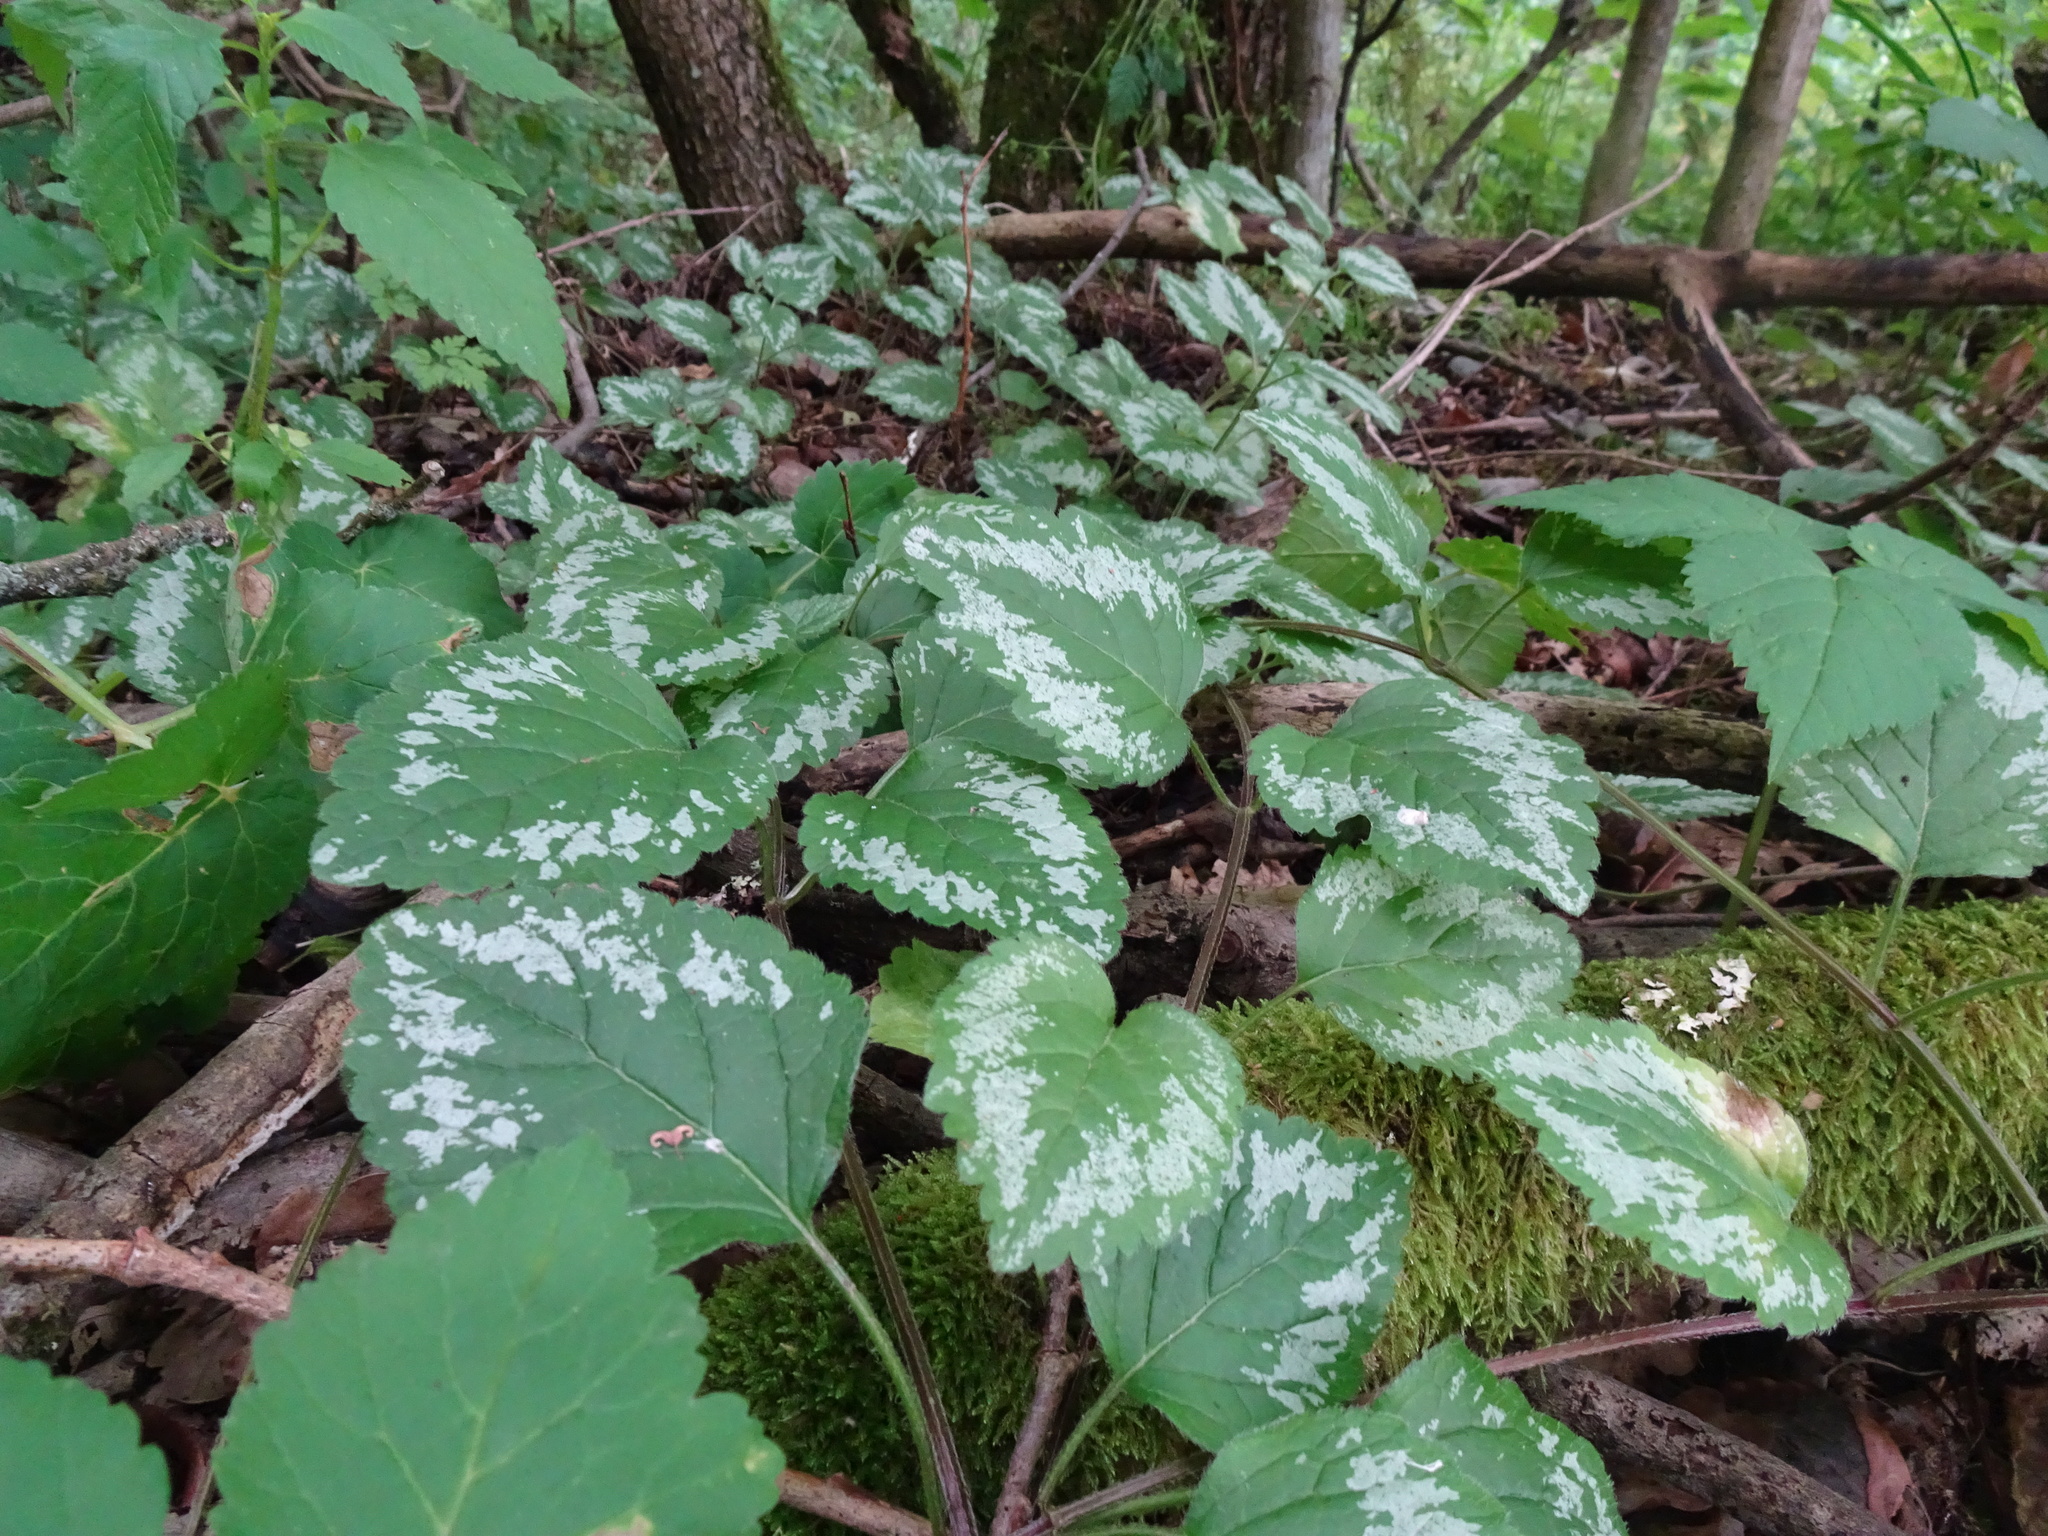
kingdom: Plantae
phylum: Tracheophyta
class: Magnoliopsida
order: Lamiales
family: Lamiaceae
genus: Lamium
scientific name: Lamium galeobdolon
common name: Yellow archangel
